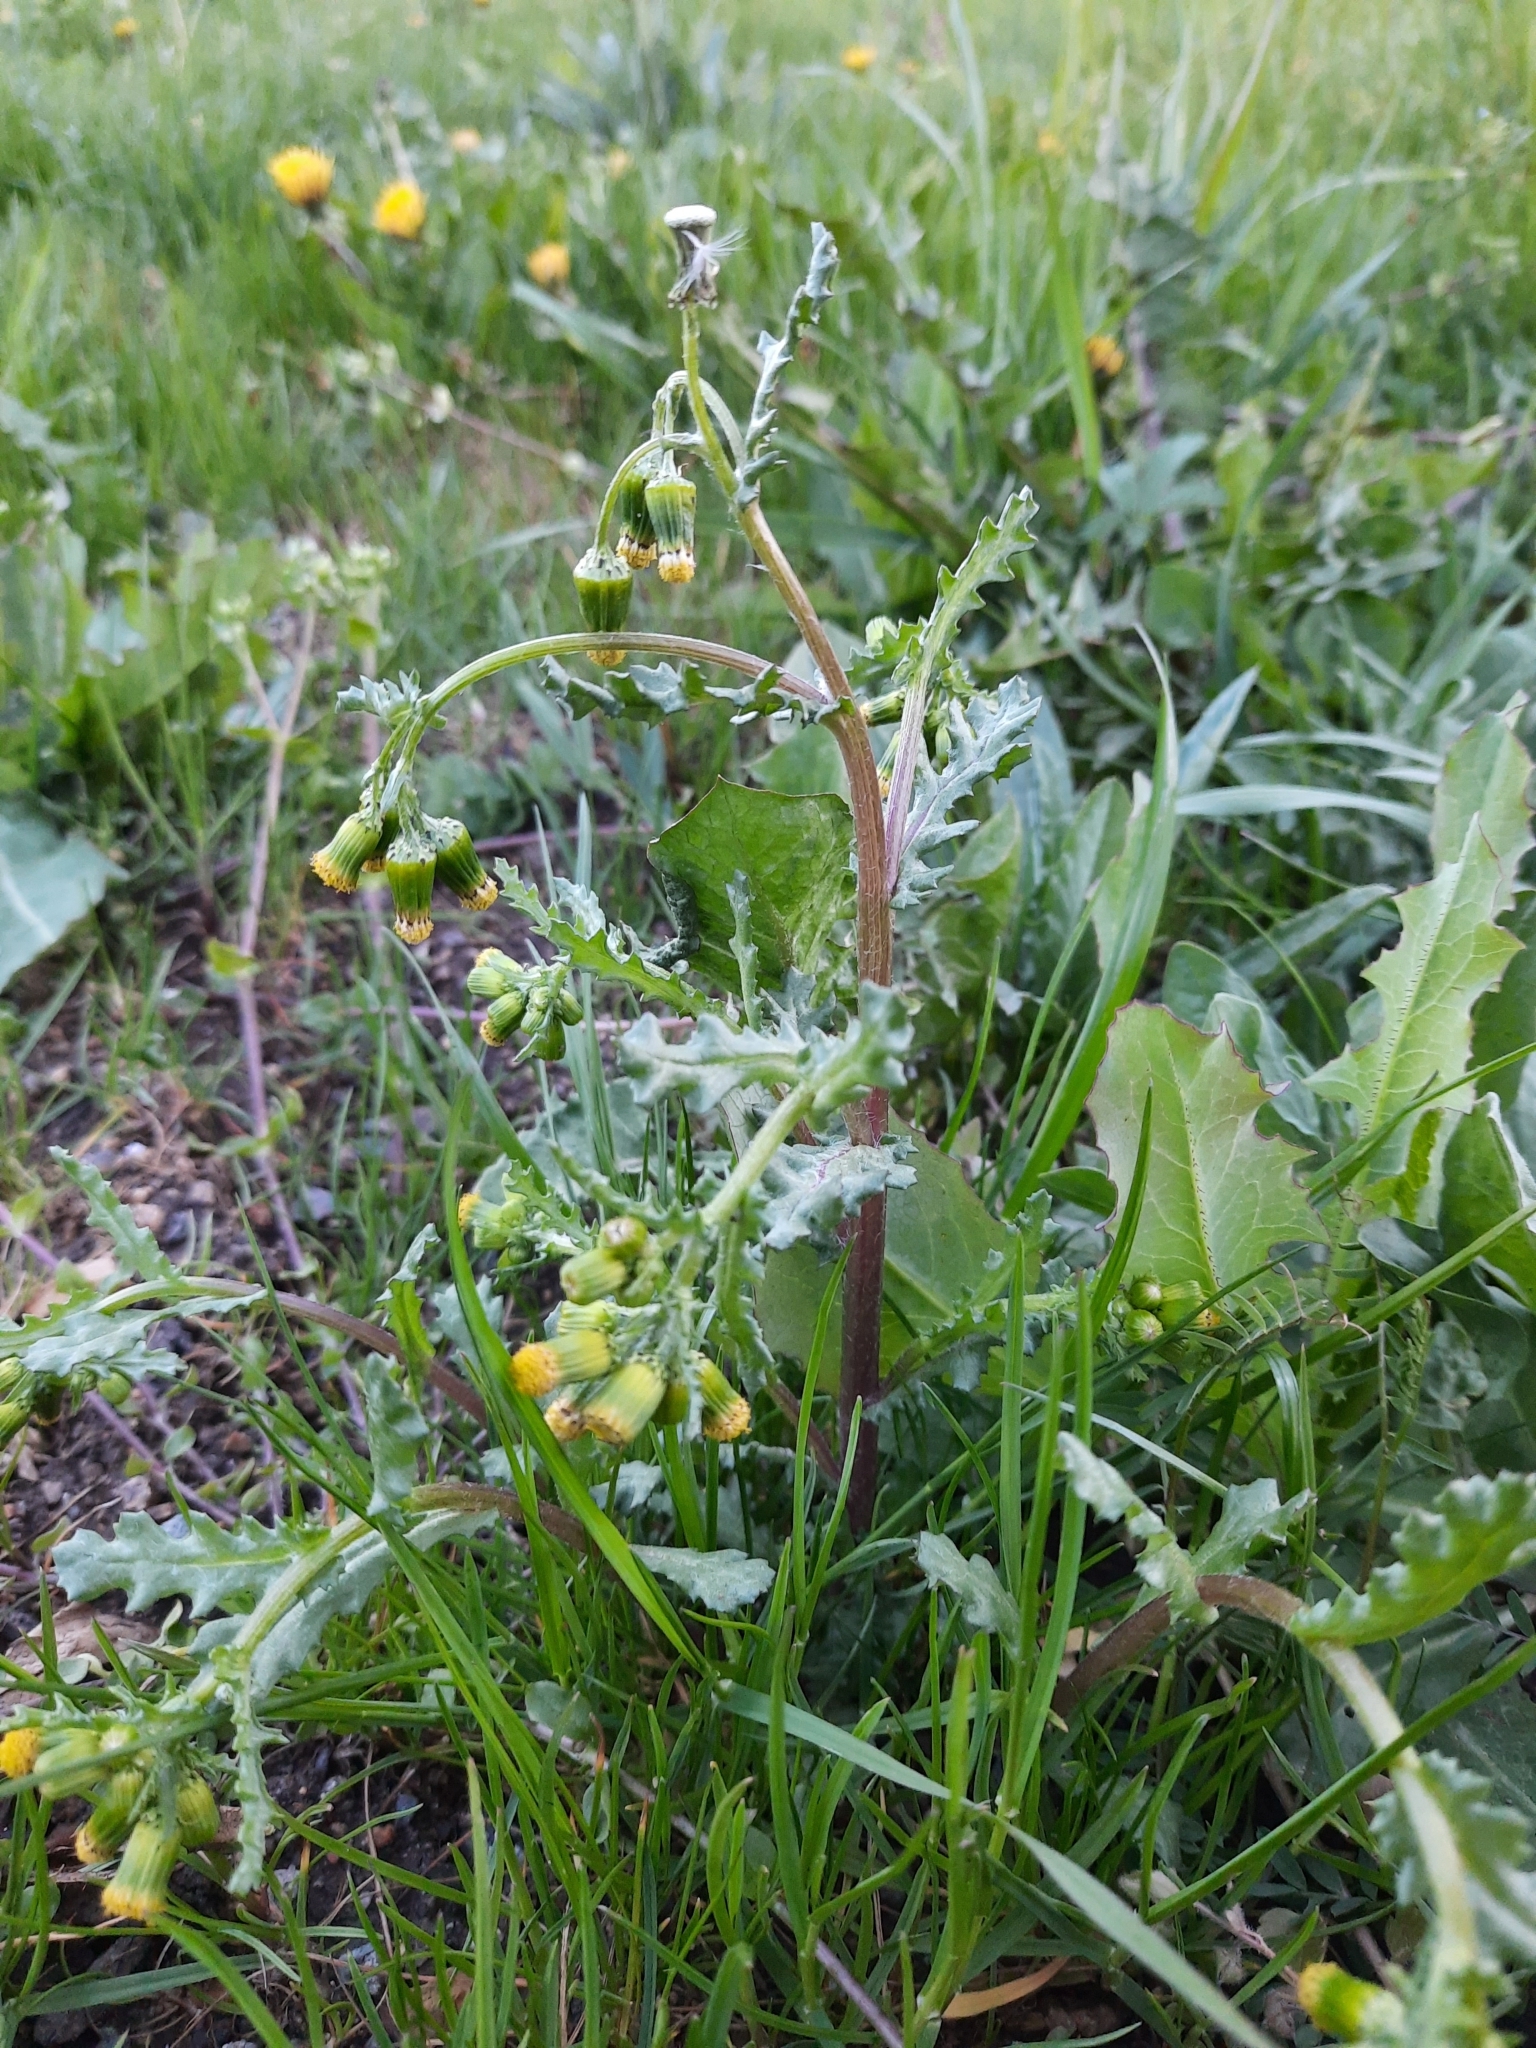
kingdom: Plantae
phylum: Tracheophyta
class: Magnoliopsida
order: Asterales
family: Asteraceae
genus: Senecio
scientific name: Senecio vulgaris
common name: Old-man-in-the-spring
